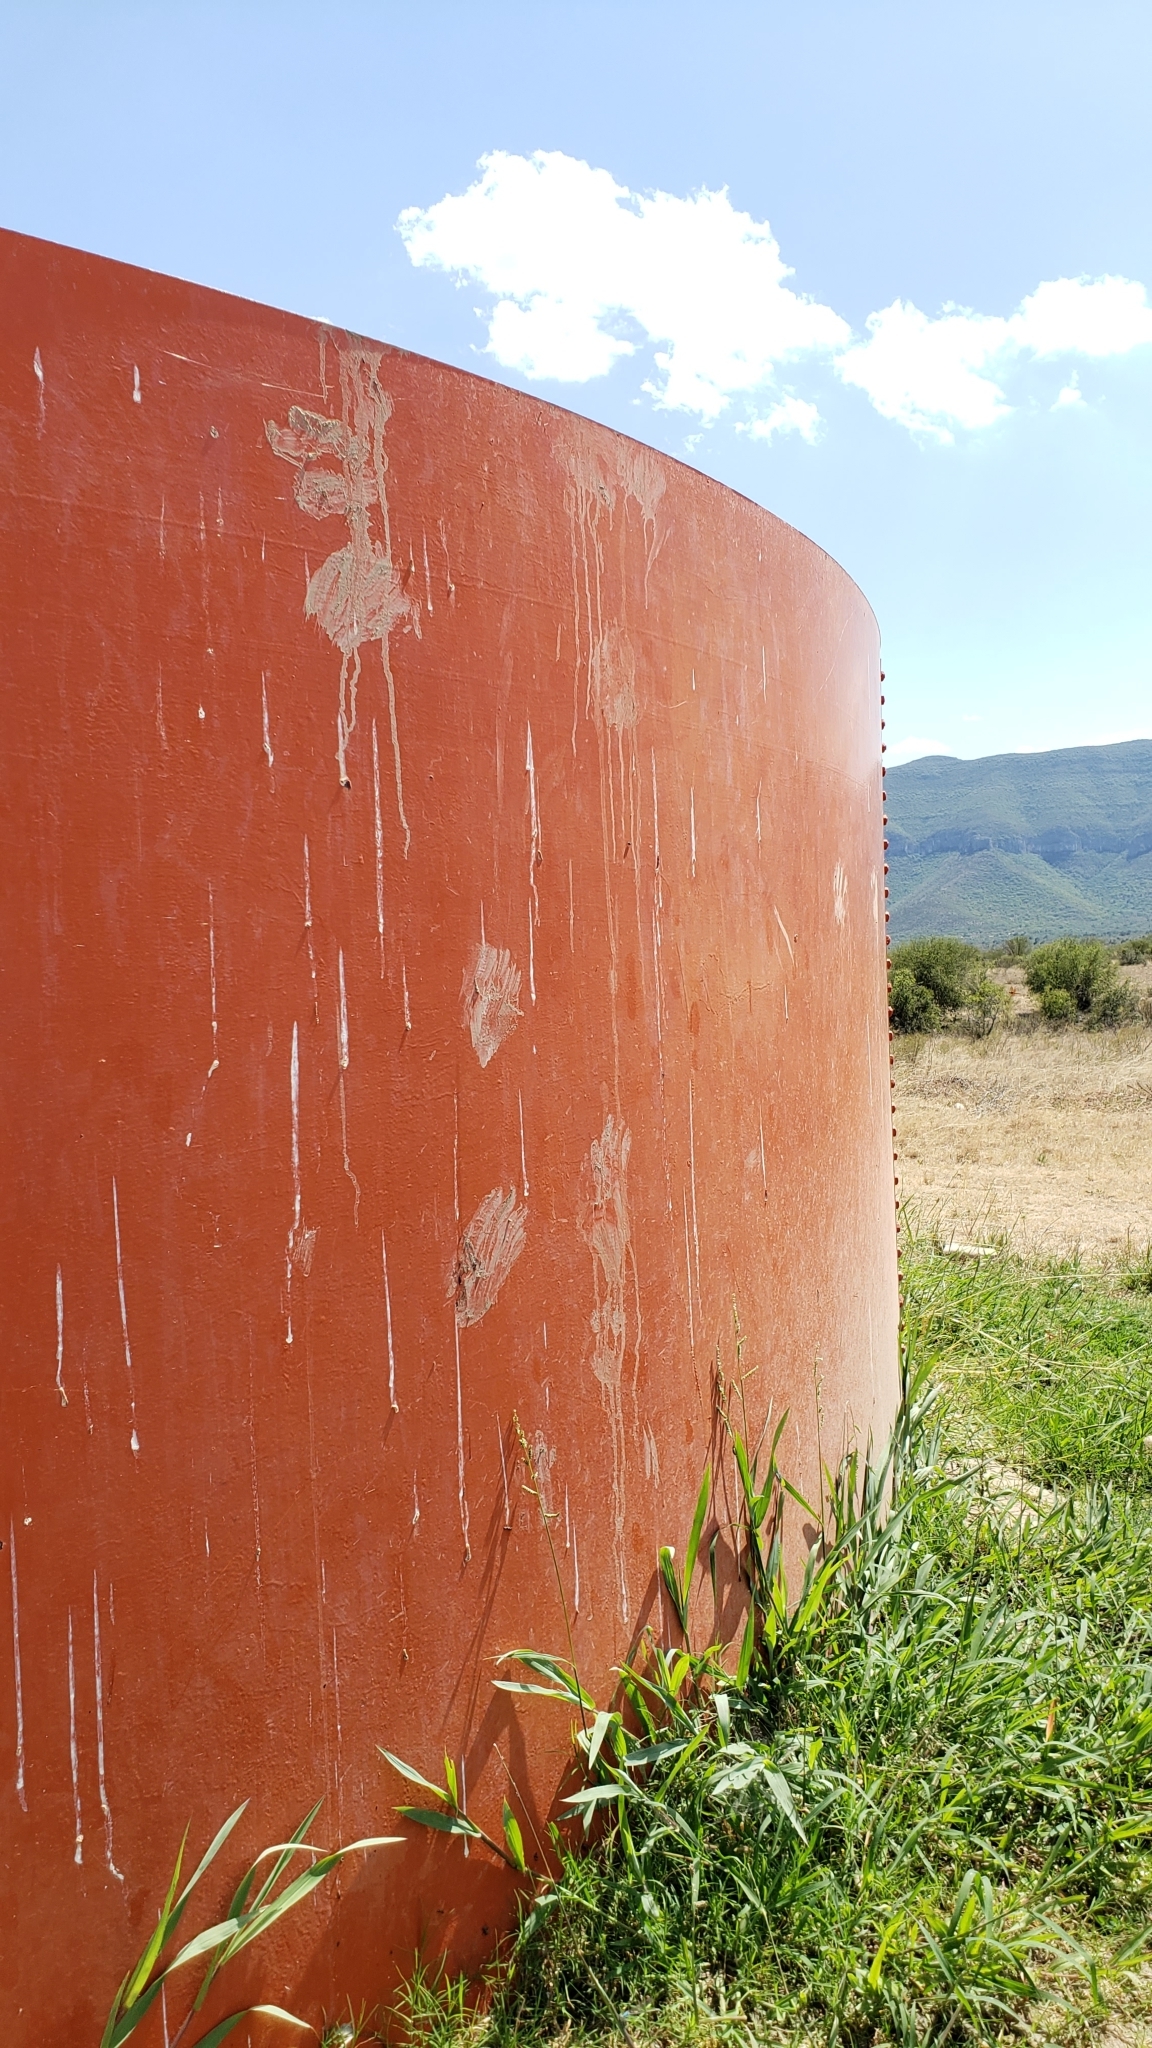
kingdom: Animalia
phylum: Chordata
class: Mammalia
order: Carnivora
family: Ursidae
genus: Ursus
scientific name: Ursus americanus
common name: American black bear
